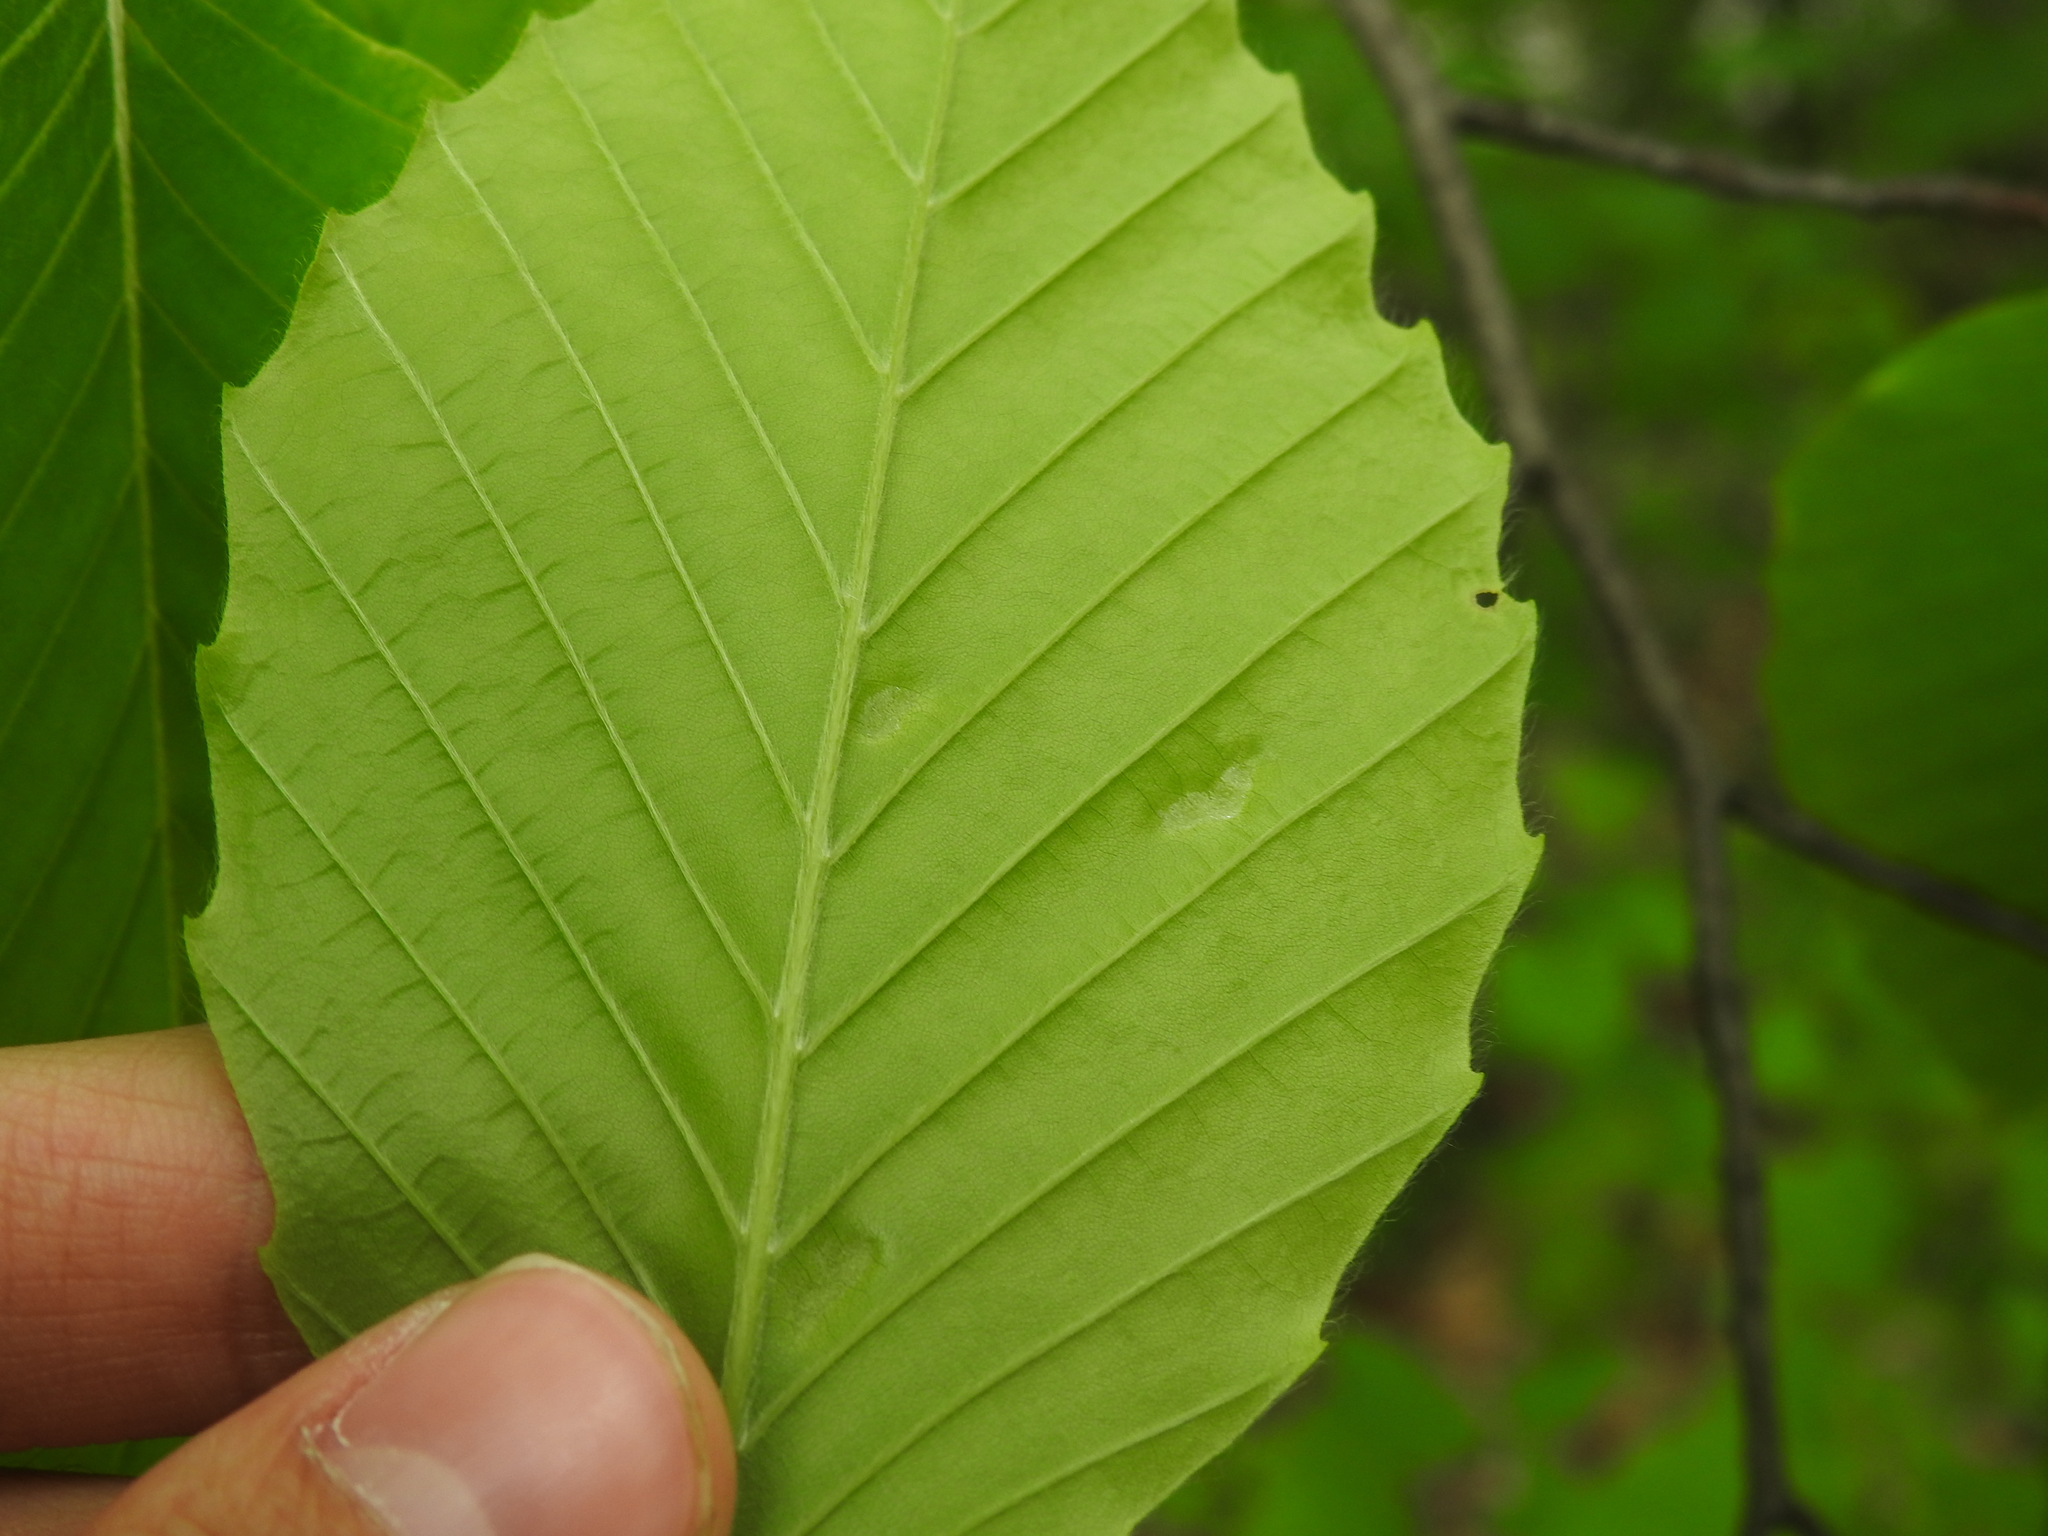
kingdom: Animalia
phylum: Arthropoda
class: Arachnida
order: Trombidiformes
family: Eriophyidae
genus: Acalitus
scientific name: Acalitus
